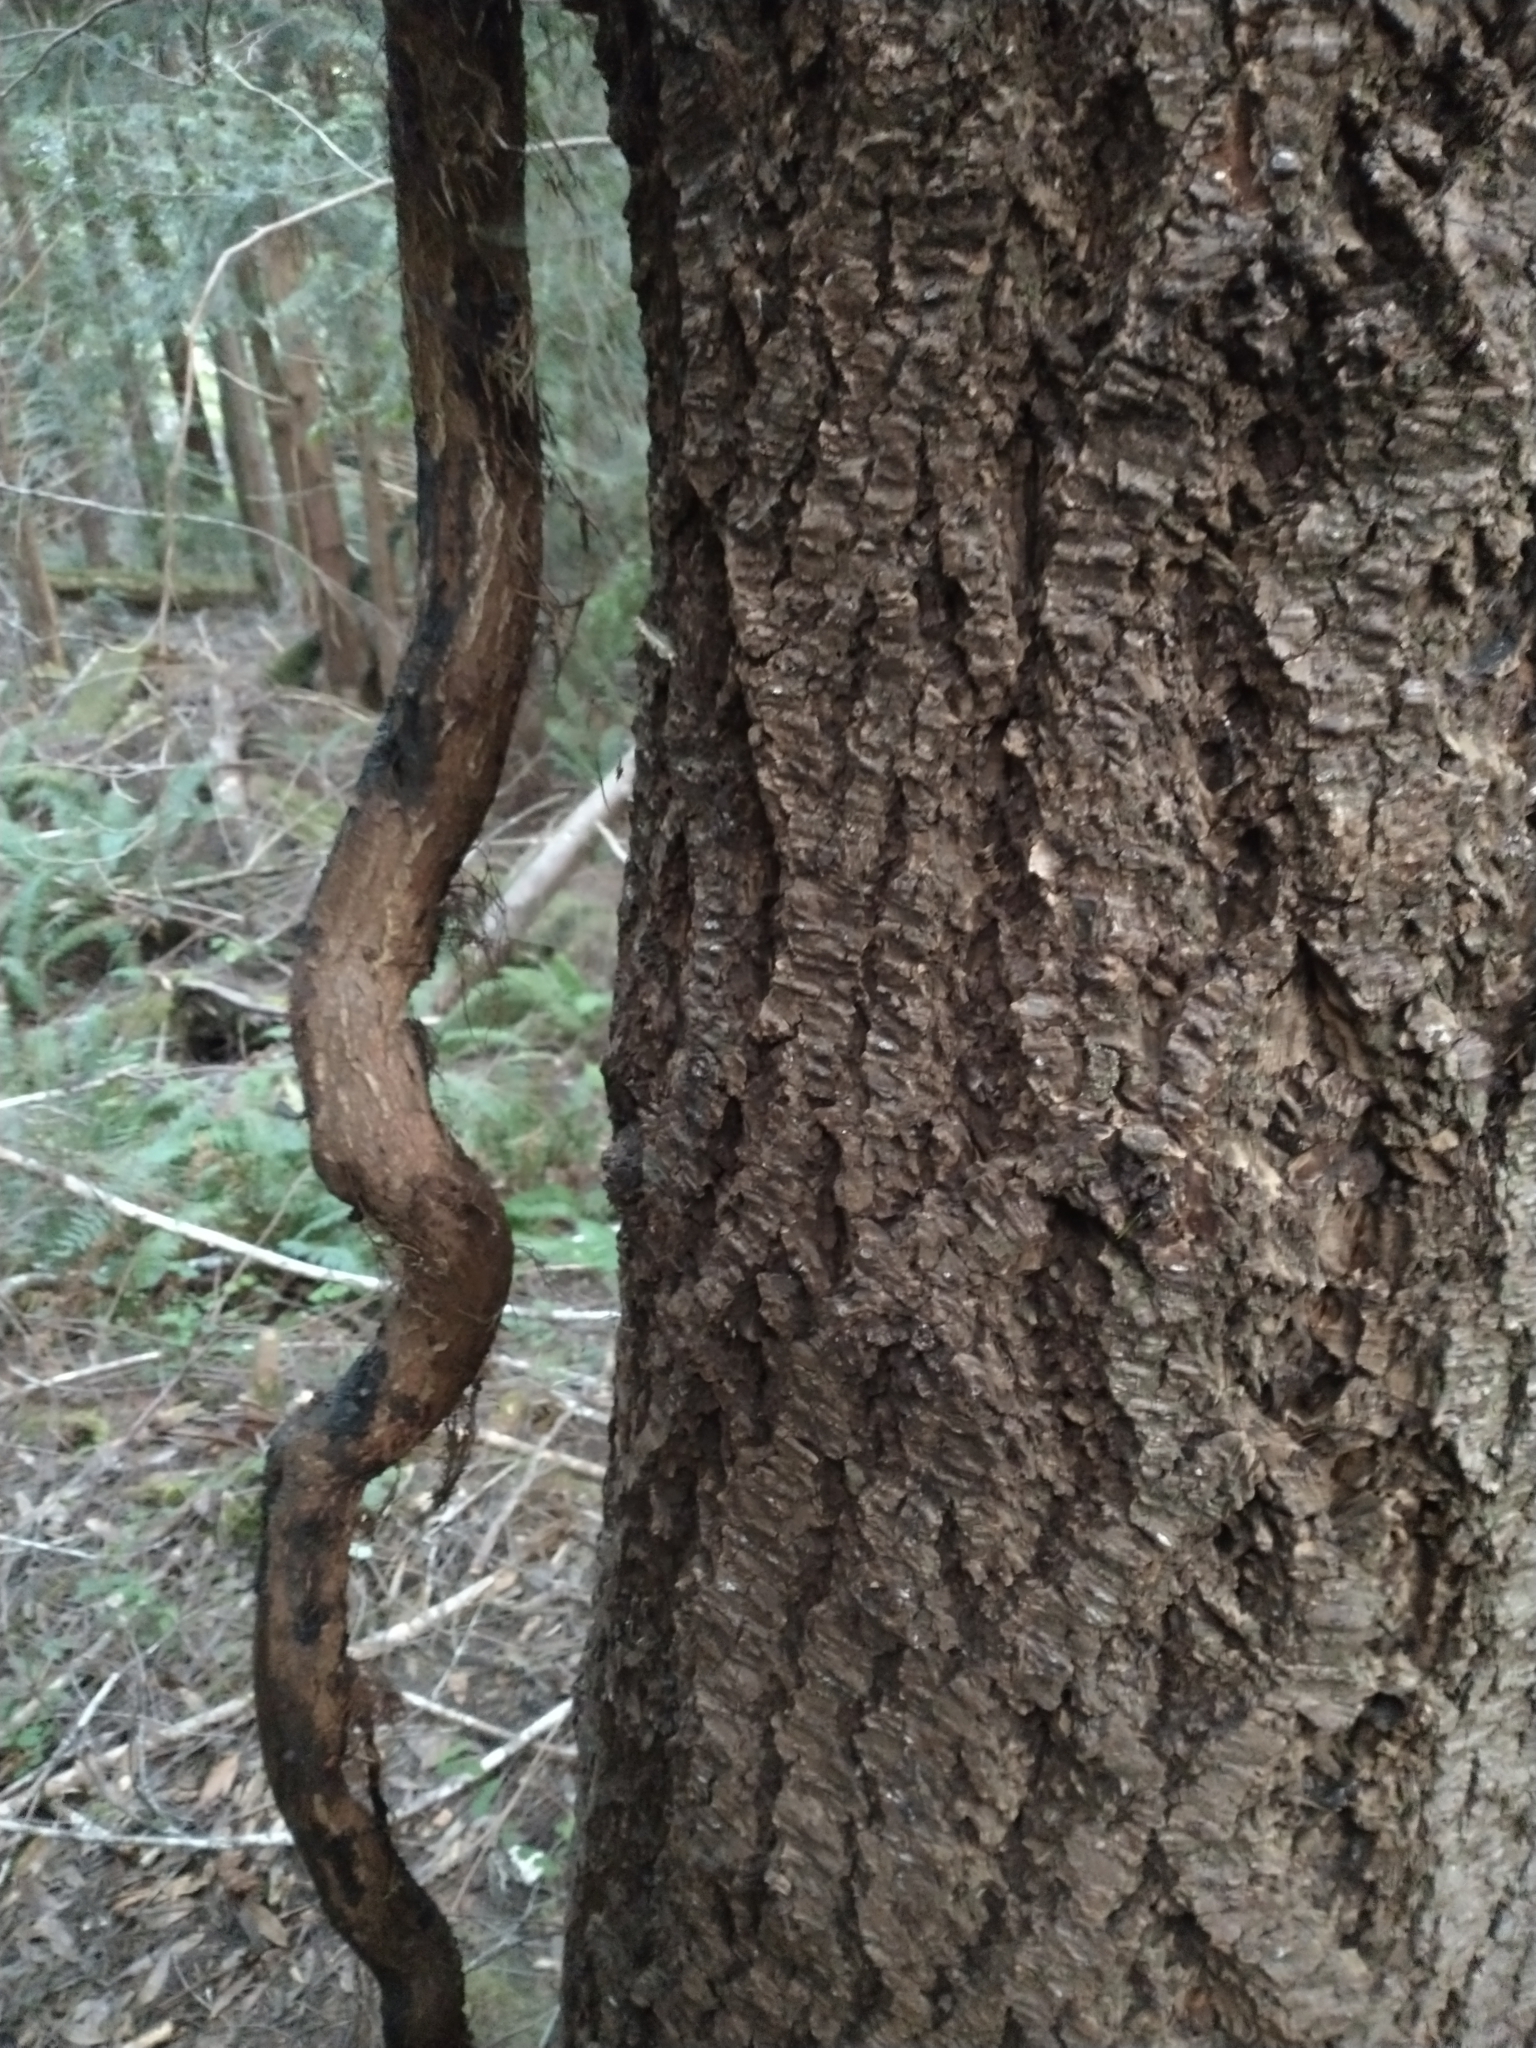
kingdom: Plantae
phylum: Tracheophyta
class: Pinopsida
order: Pinales
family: Pinaceae
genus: Pseudotsuga
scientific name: Pseudotsuga menziesii
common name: Douglas fir
